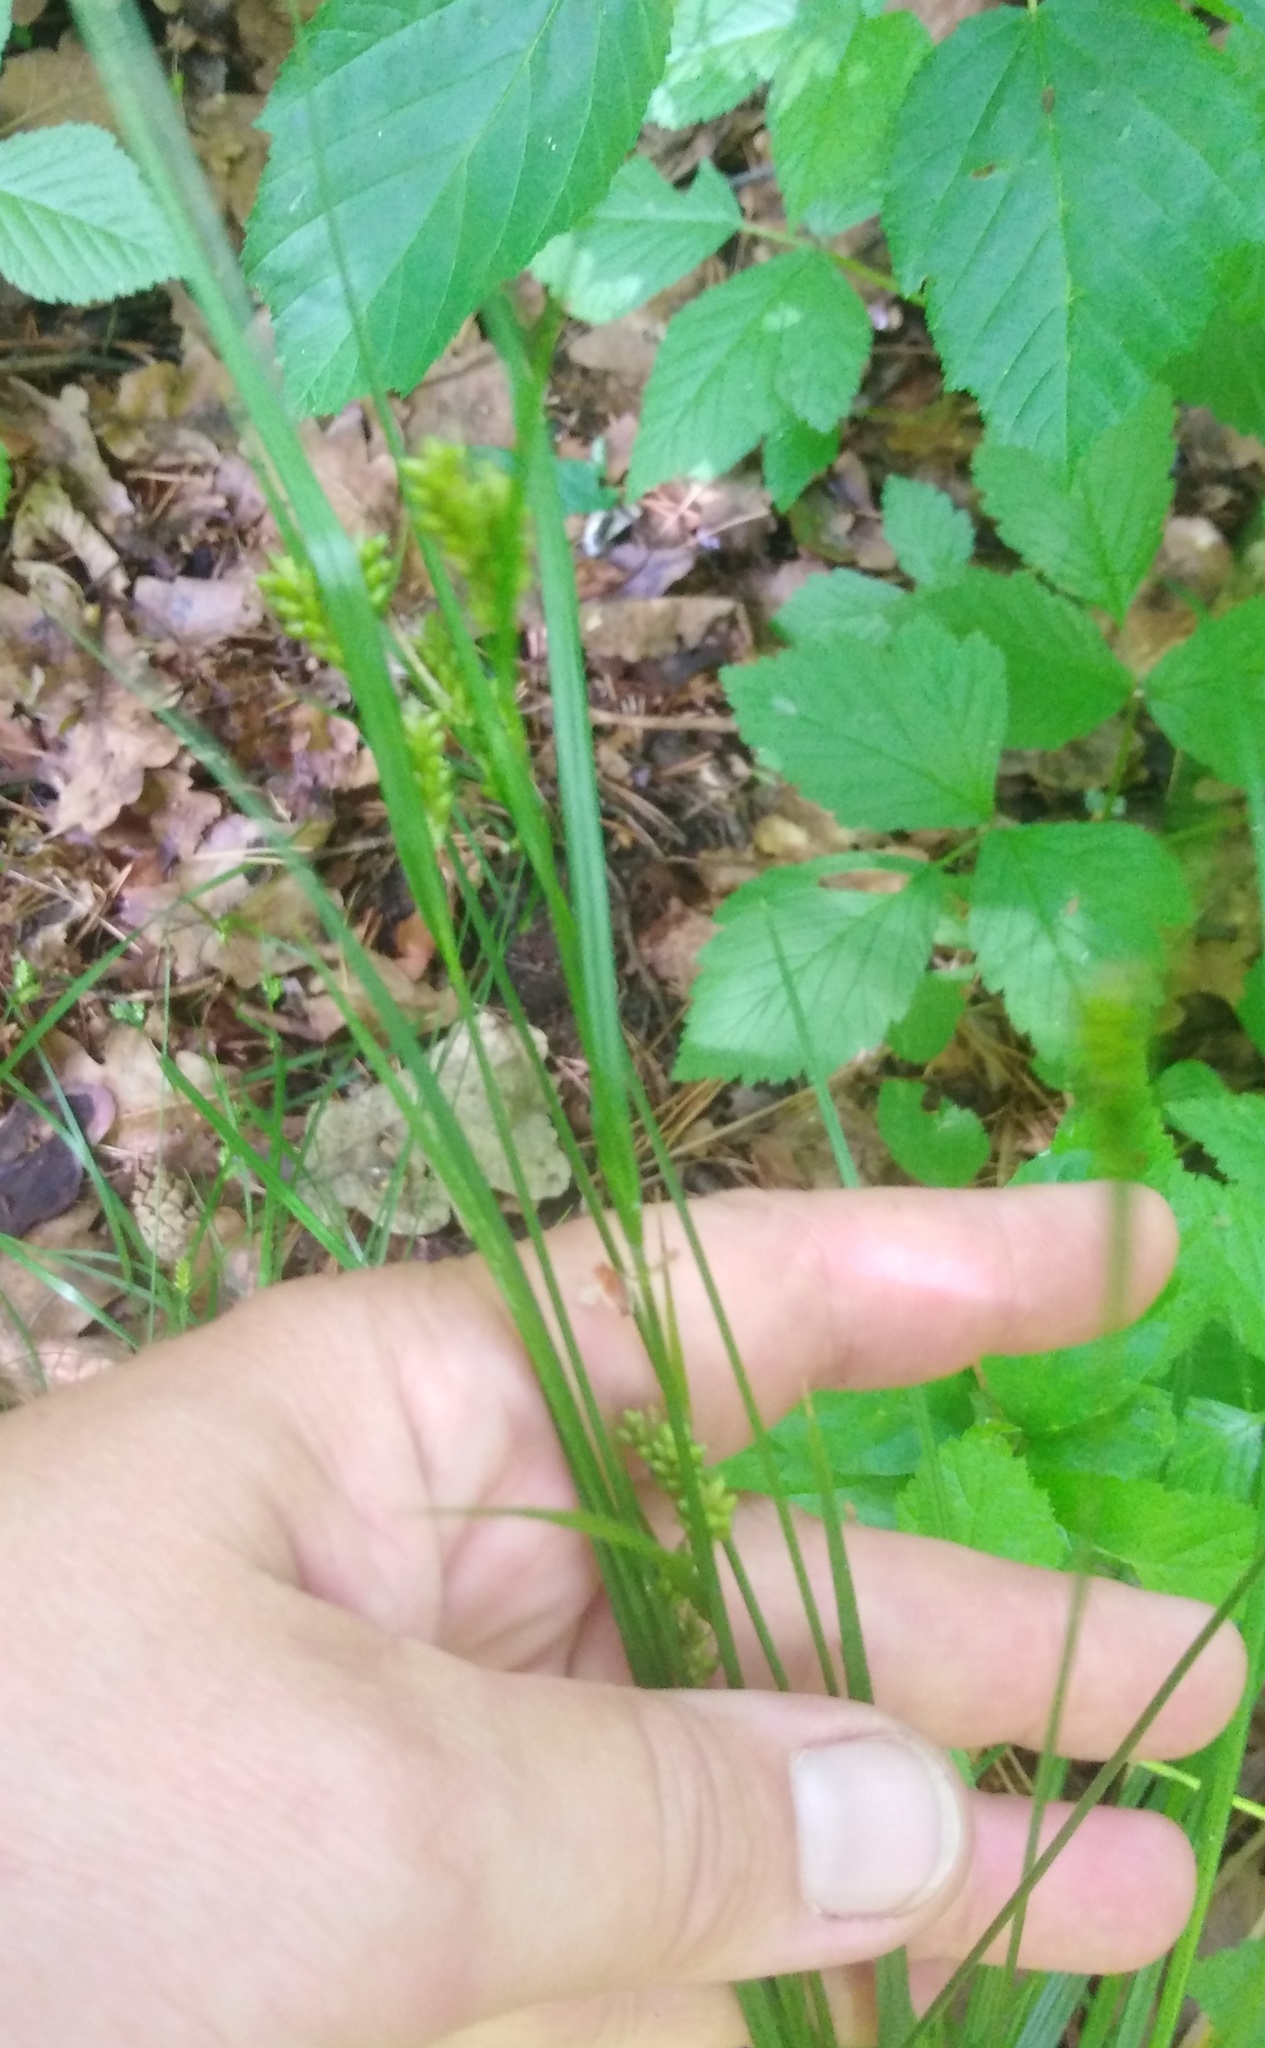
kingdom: Plantae
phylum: Tracheophyta
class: Liliopsida
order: Poales
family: Cyperaceae
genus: Carex
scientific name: Carex pallescens
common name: Pale sedge
